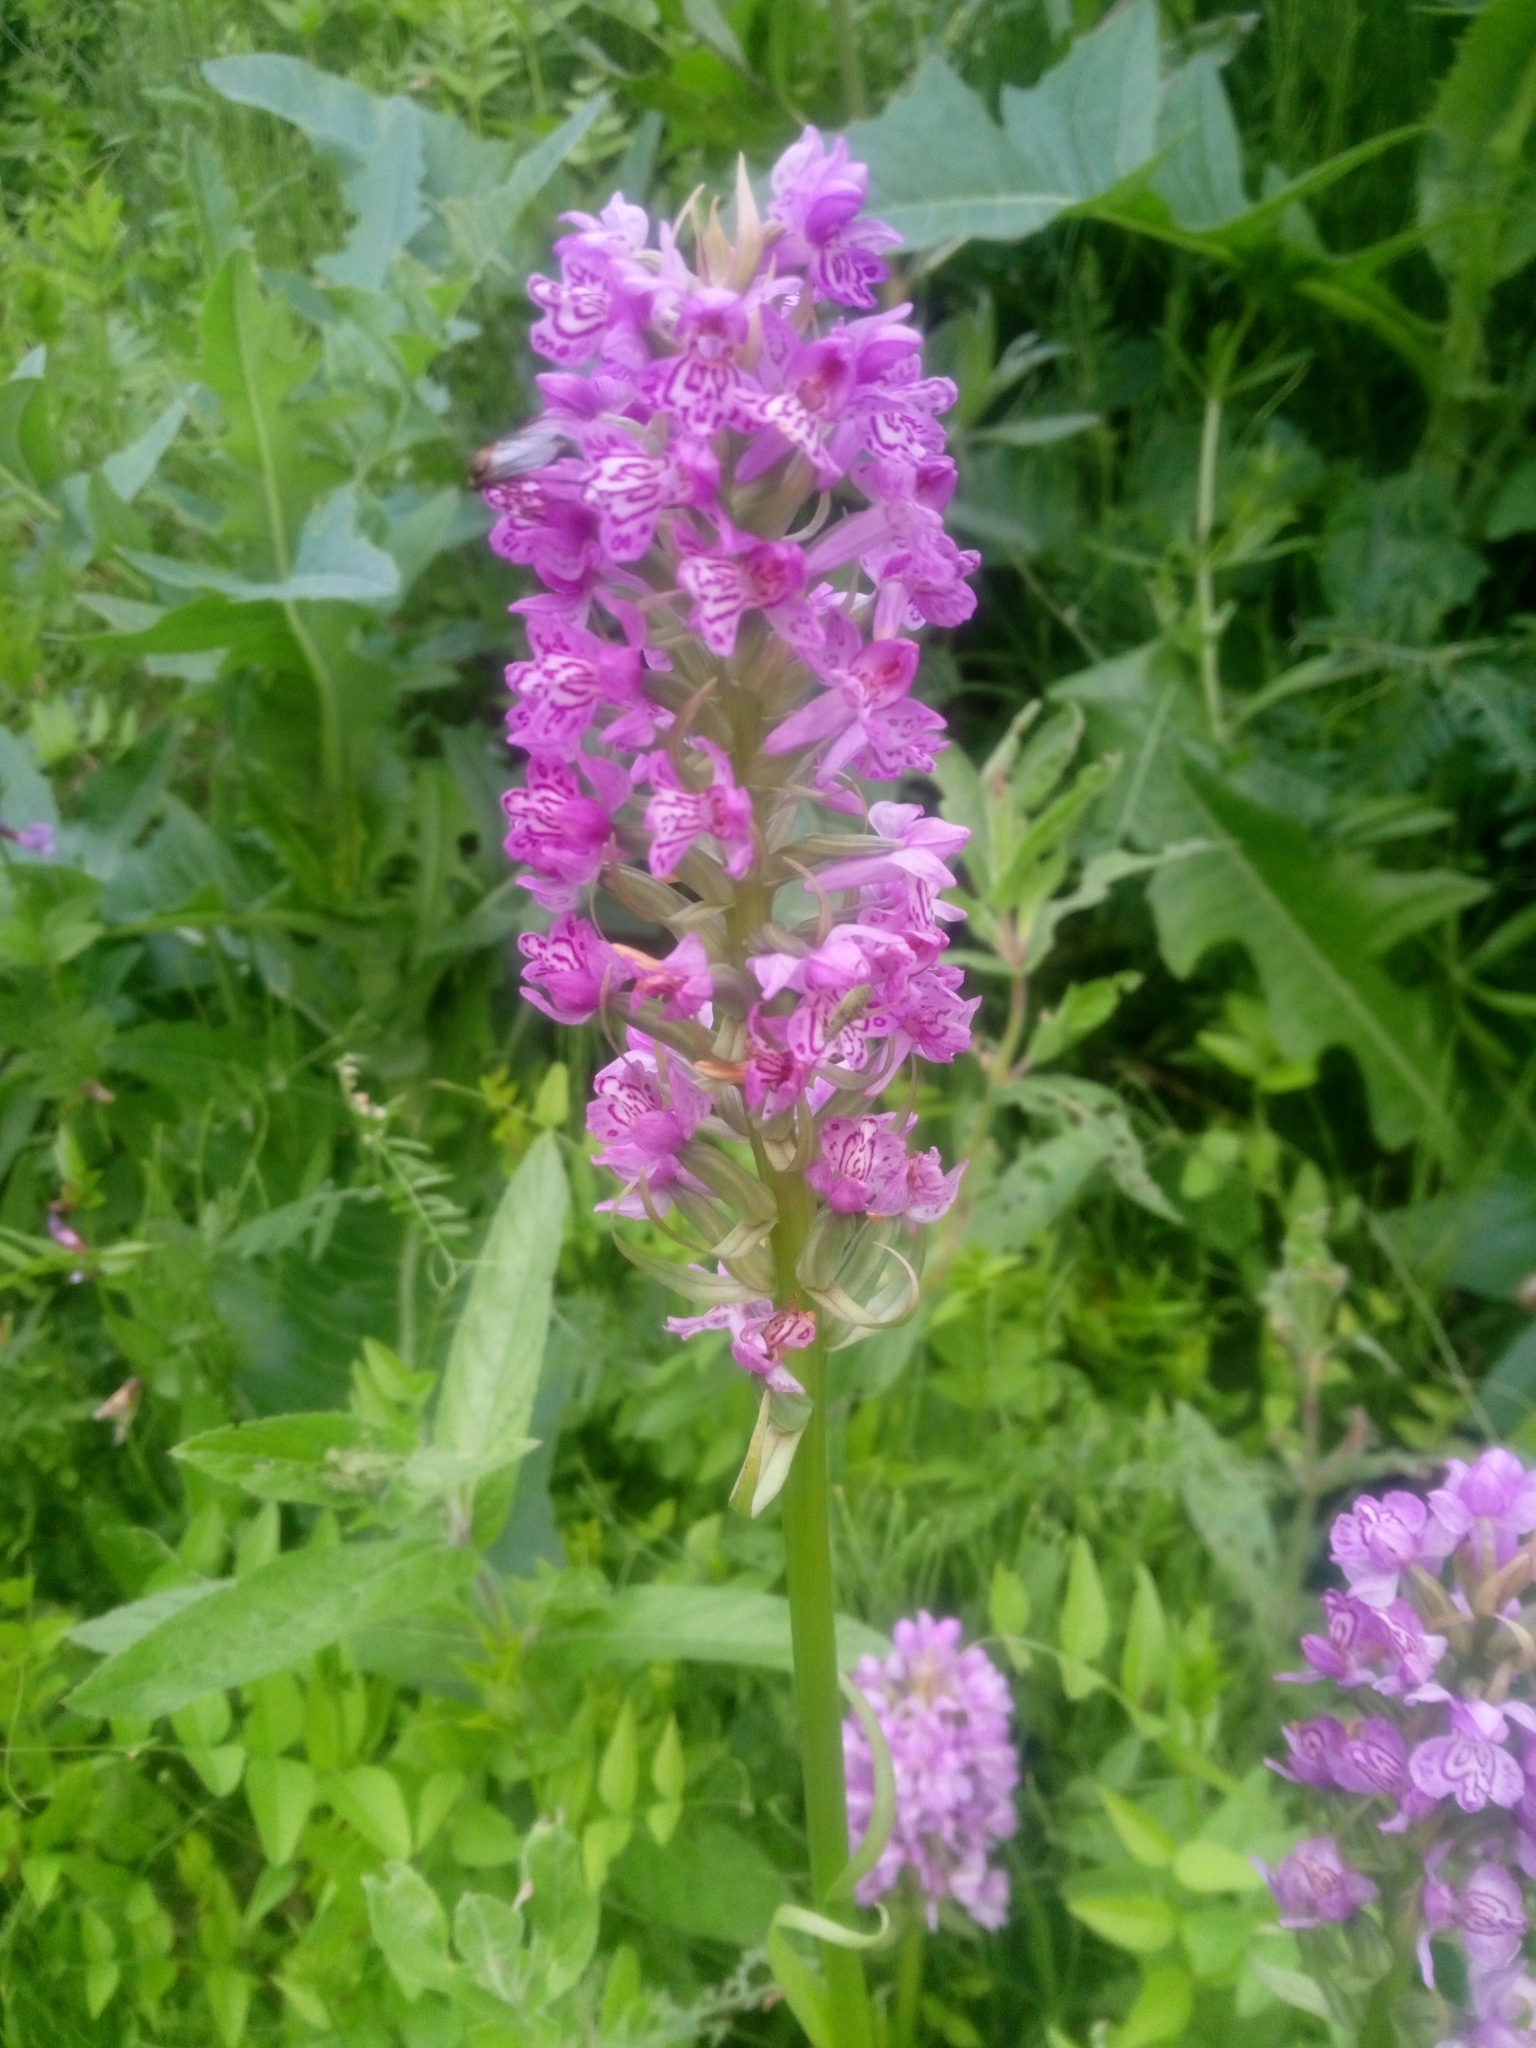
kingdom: Plantae
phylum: Tracheophyta
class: Liliopsida
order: Asparagales
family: Orchidaceae
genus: Dactylorhiza
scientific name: Dactylorhiza majalis
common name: Marsh orchid
